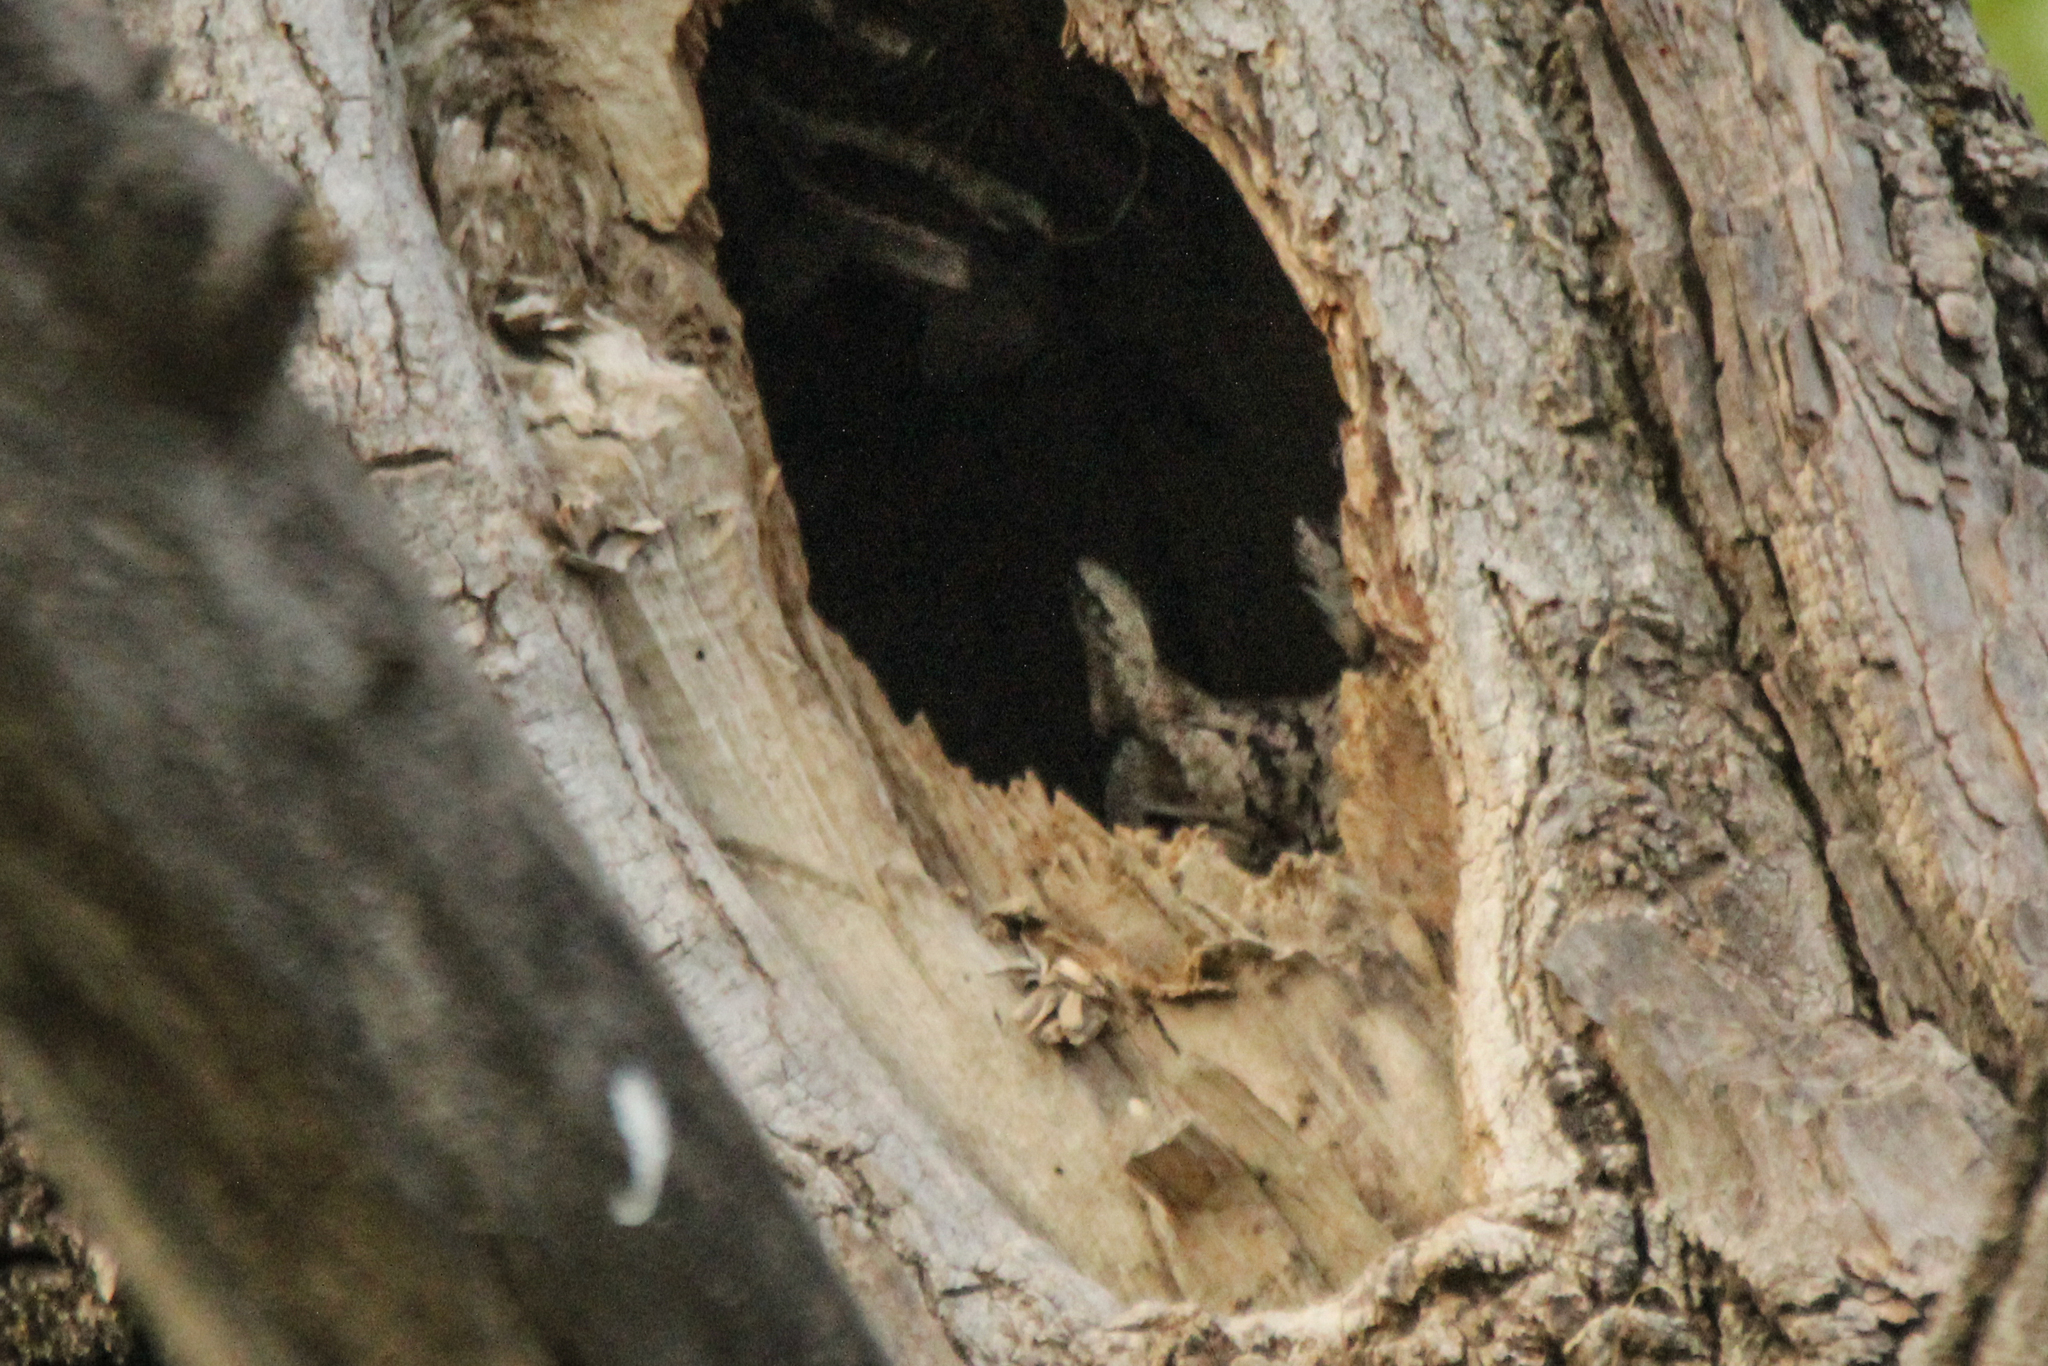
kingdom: Animalia
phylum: Chordata
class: Aves
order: Strigiformes
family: Strigidae
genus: Otus
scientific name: Otus semitorques
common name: Japanese scops owl
